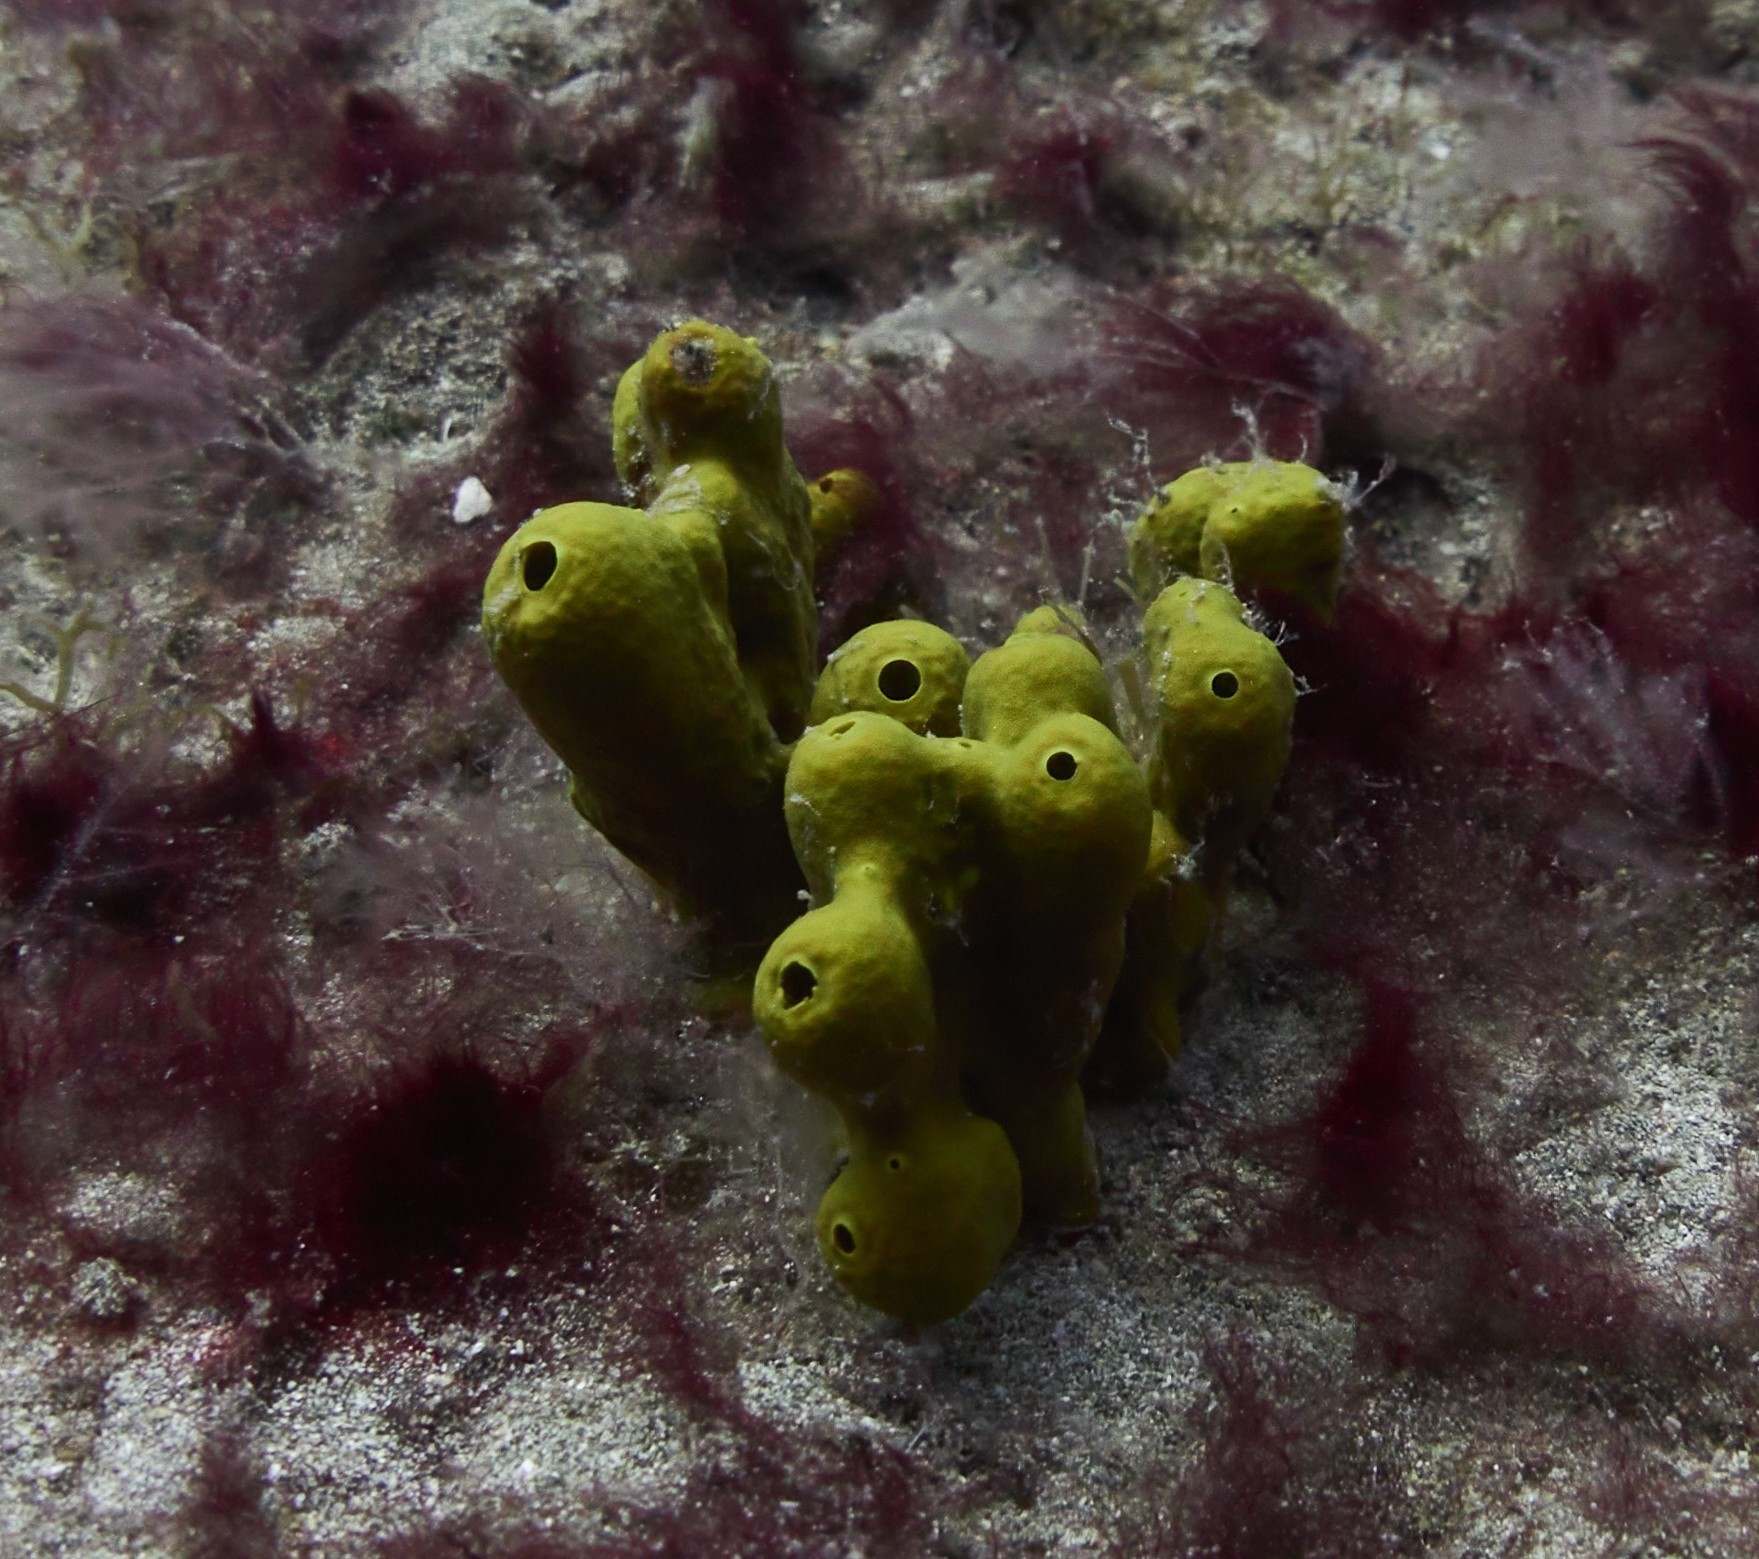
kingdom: Animalia
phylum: Porifera
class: Demospongiae
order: Verongiida
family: Aplysinidae
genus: Aplysina
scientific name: Aplysina aerophoba
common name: Aureate sponge
